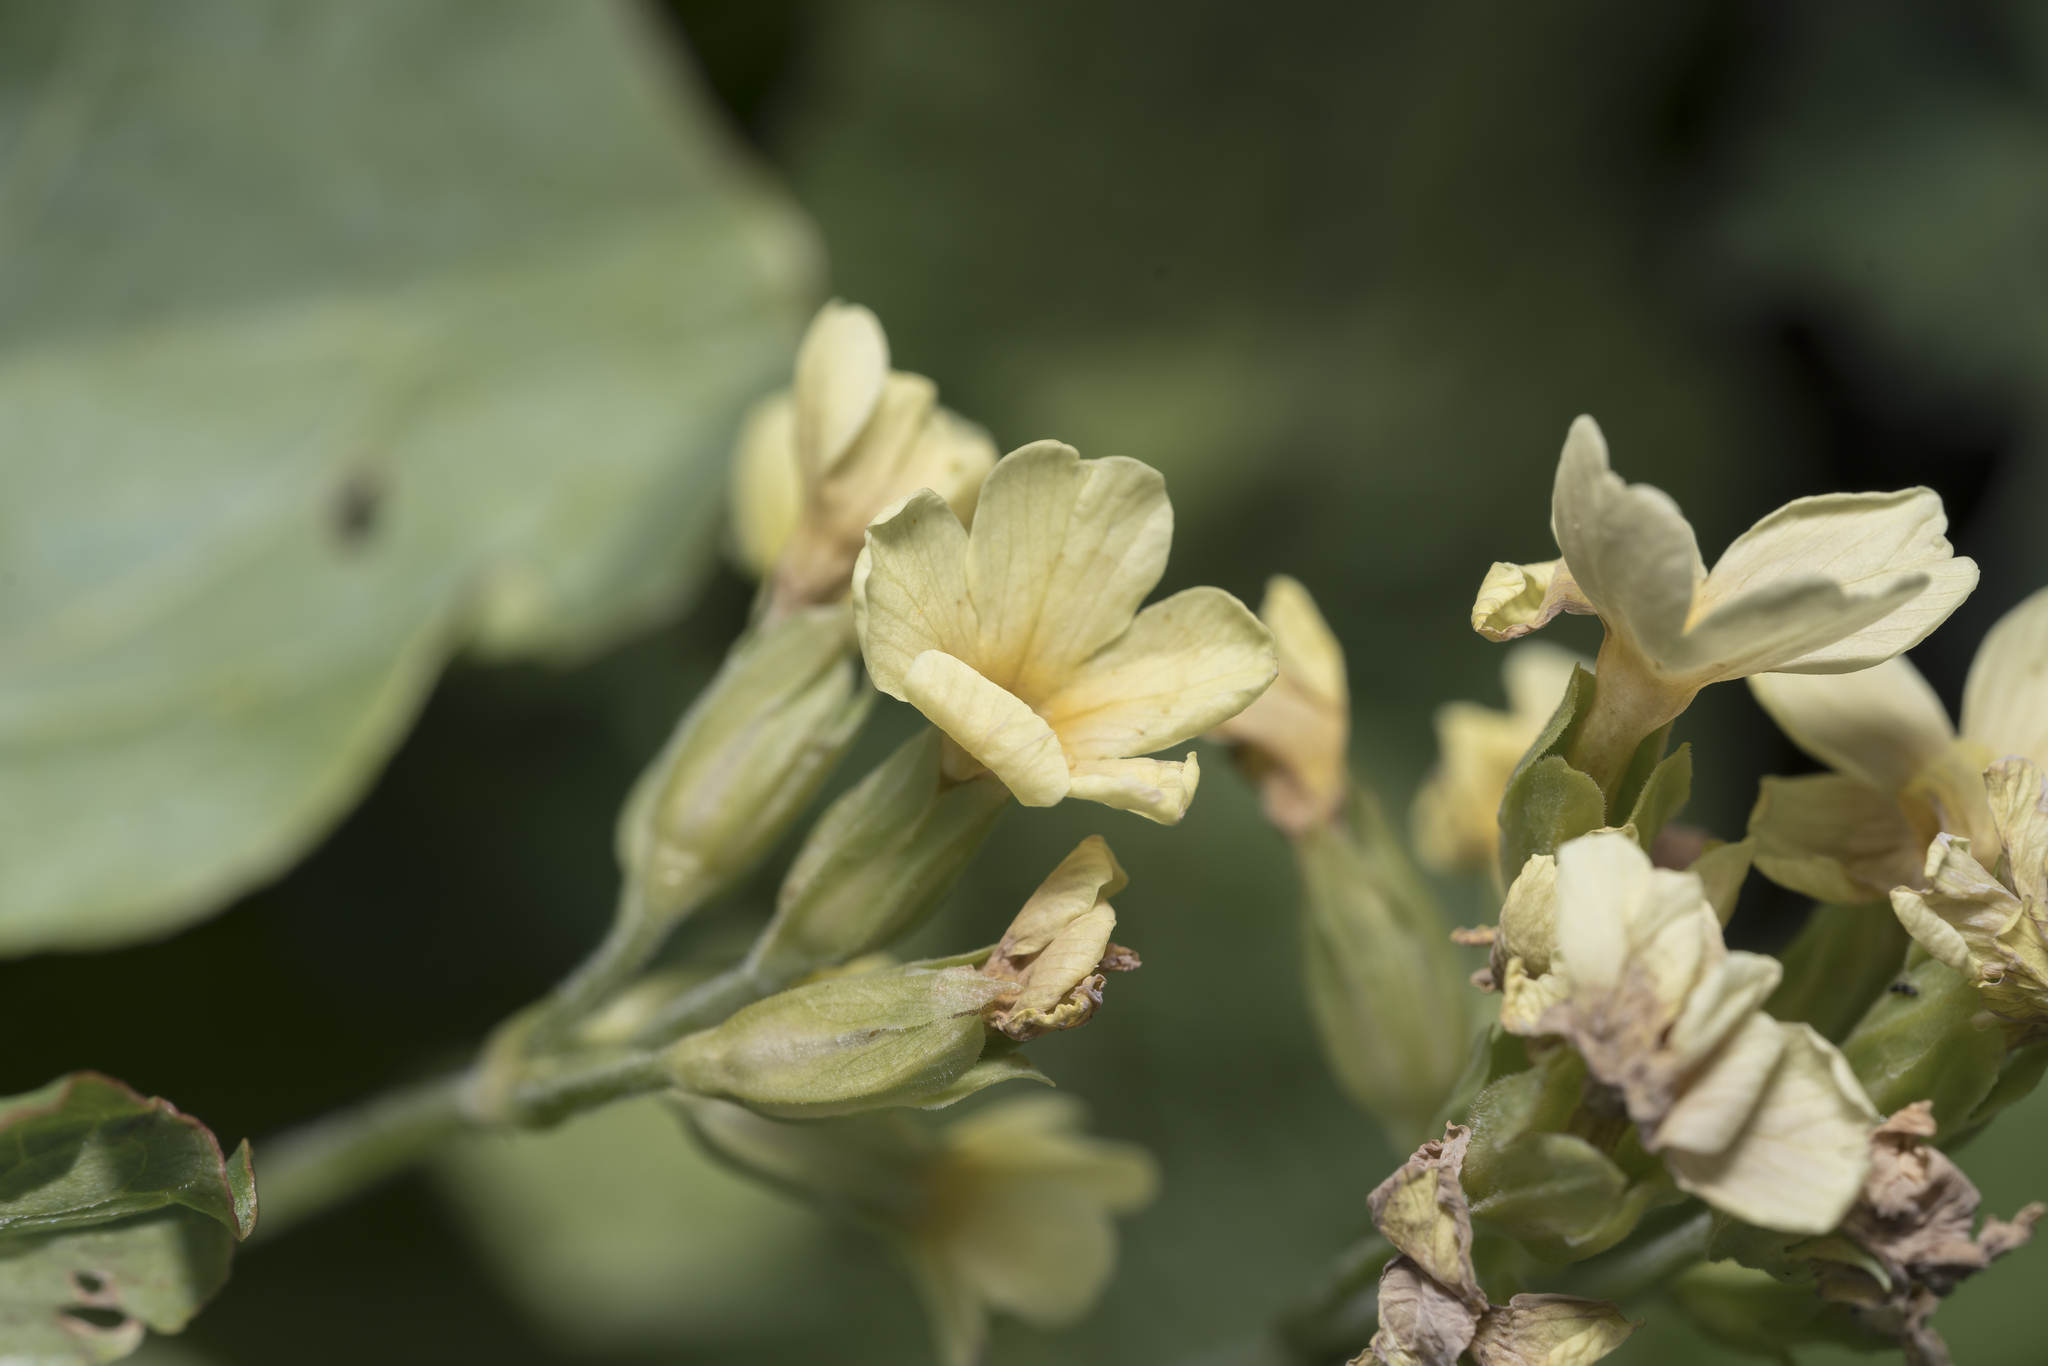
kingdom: Plantae
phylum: Tracheophyta
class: Magnoliopsida
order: Ericales
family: Primulaceae
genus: Primula
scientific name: Primula elatior
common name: Oxlip
